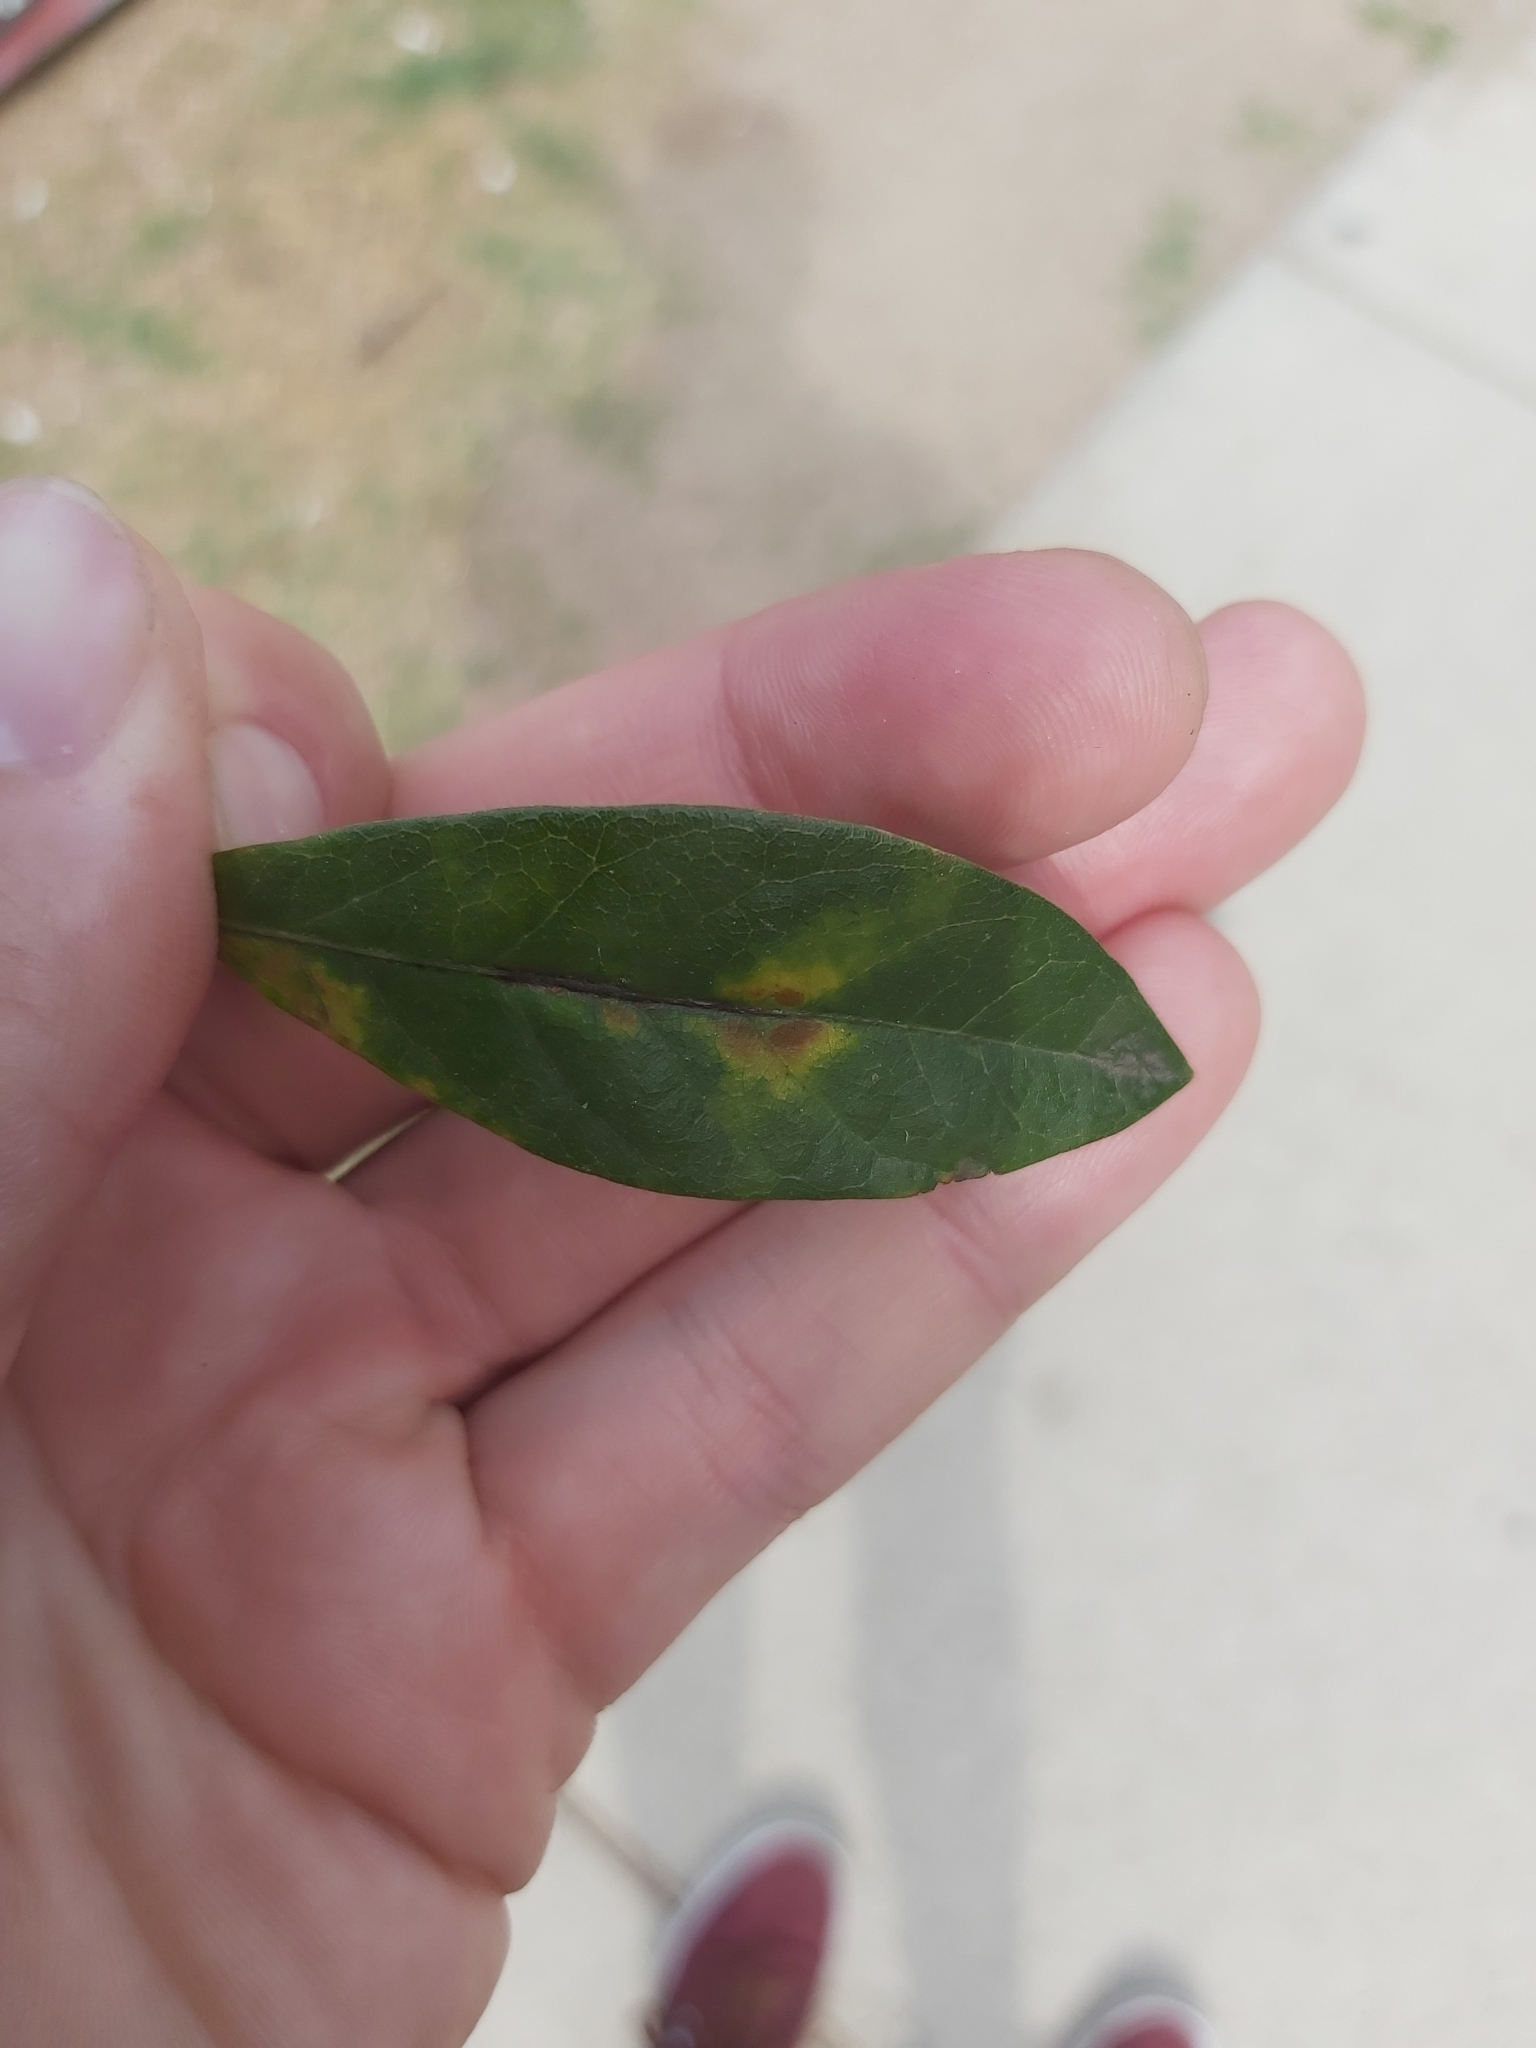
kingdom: Animalia
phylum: Arthropoda
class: Insecta
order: Hymenoptera
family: Cynipidae
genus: Andricus
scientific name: Andricus Druon quercuslanigerum
